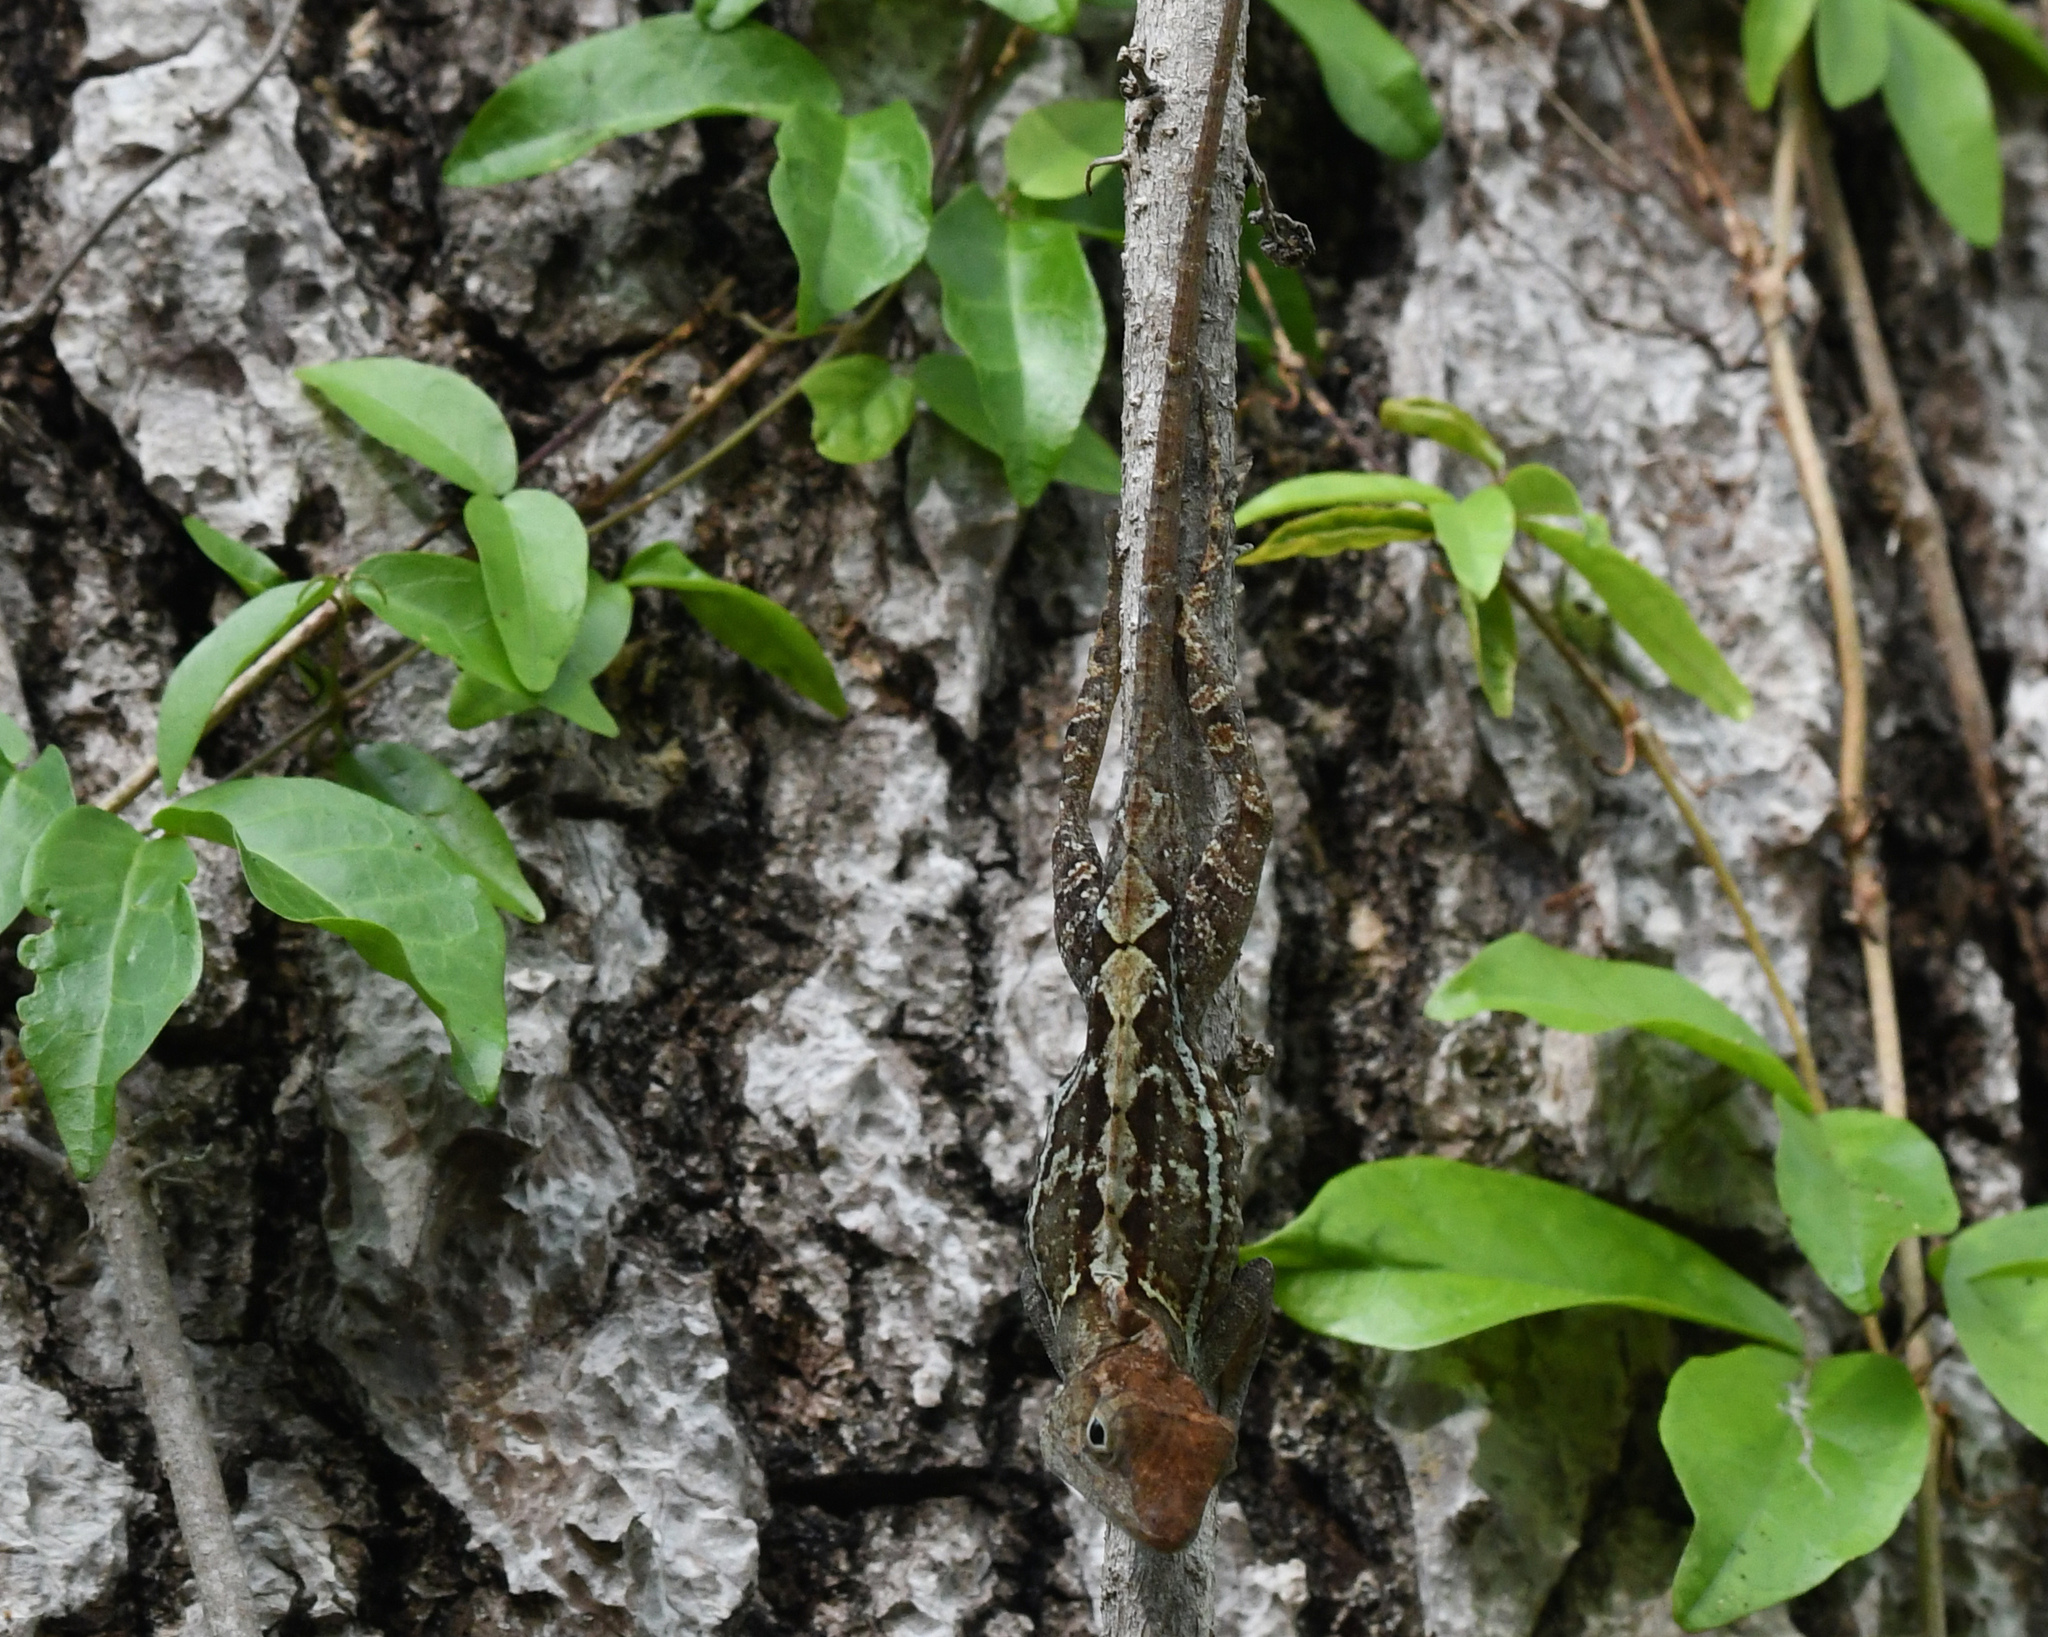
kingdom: Animalia
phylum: Chordata
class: Squamata
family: Dactyloidae
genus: Anolis
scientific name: Anolis aridius
